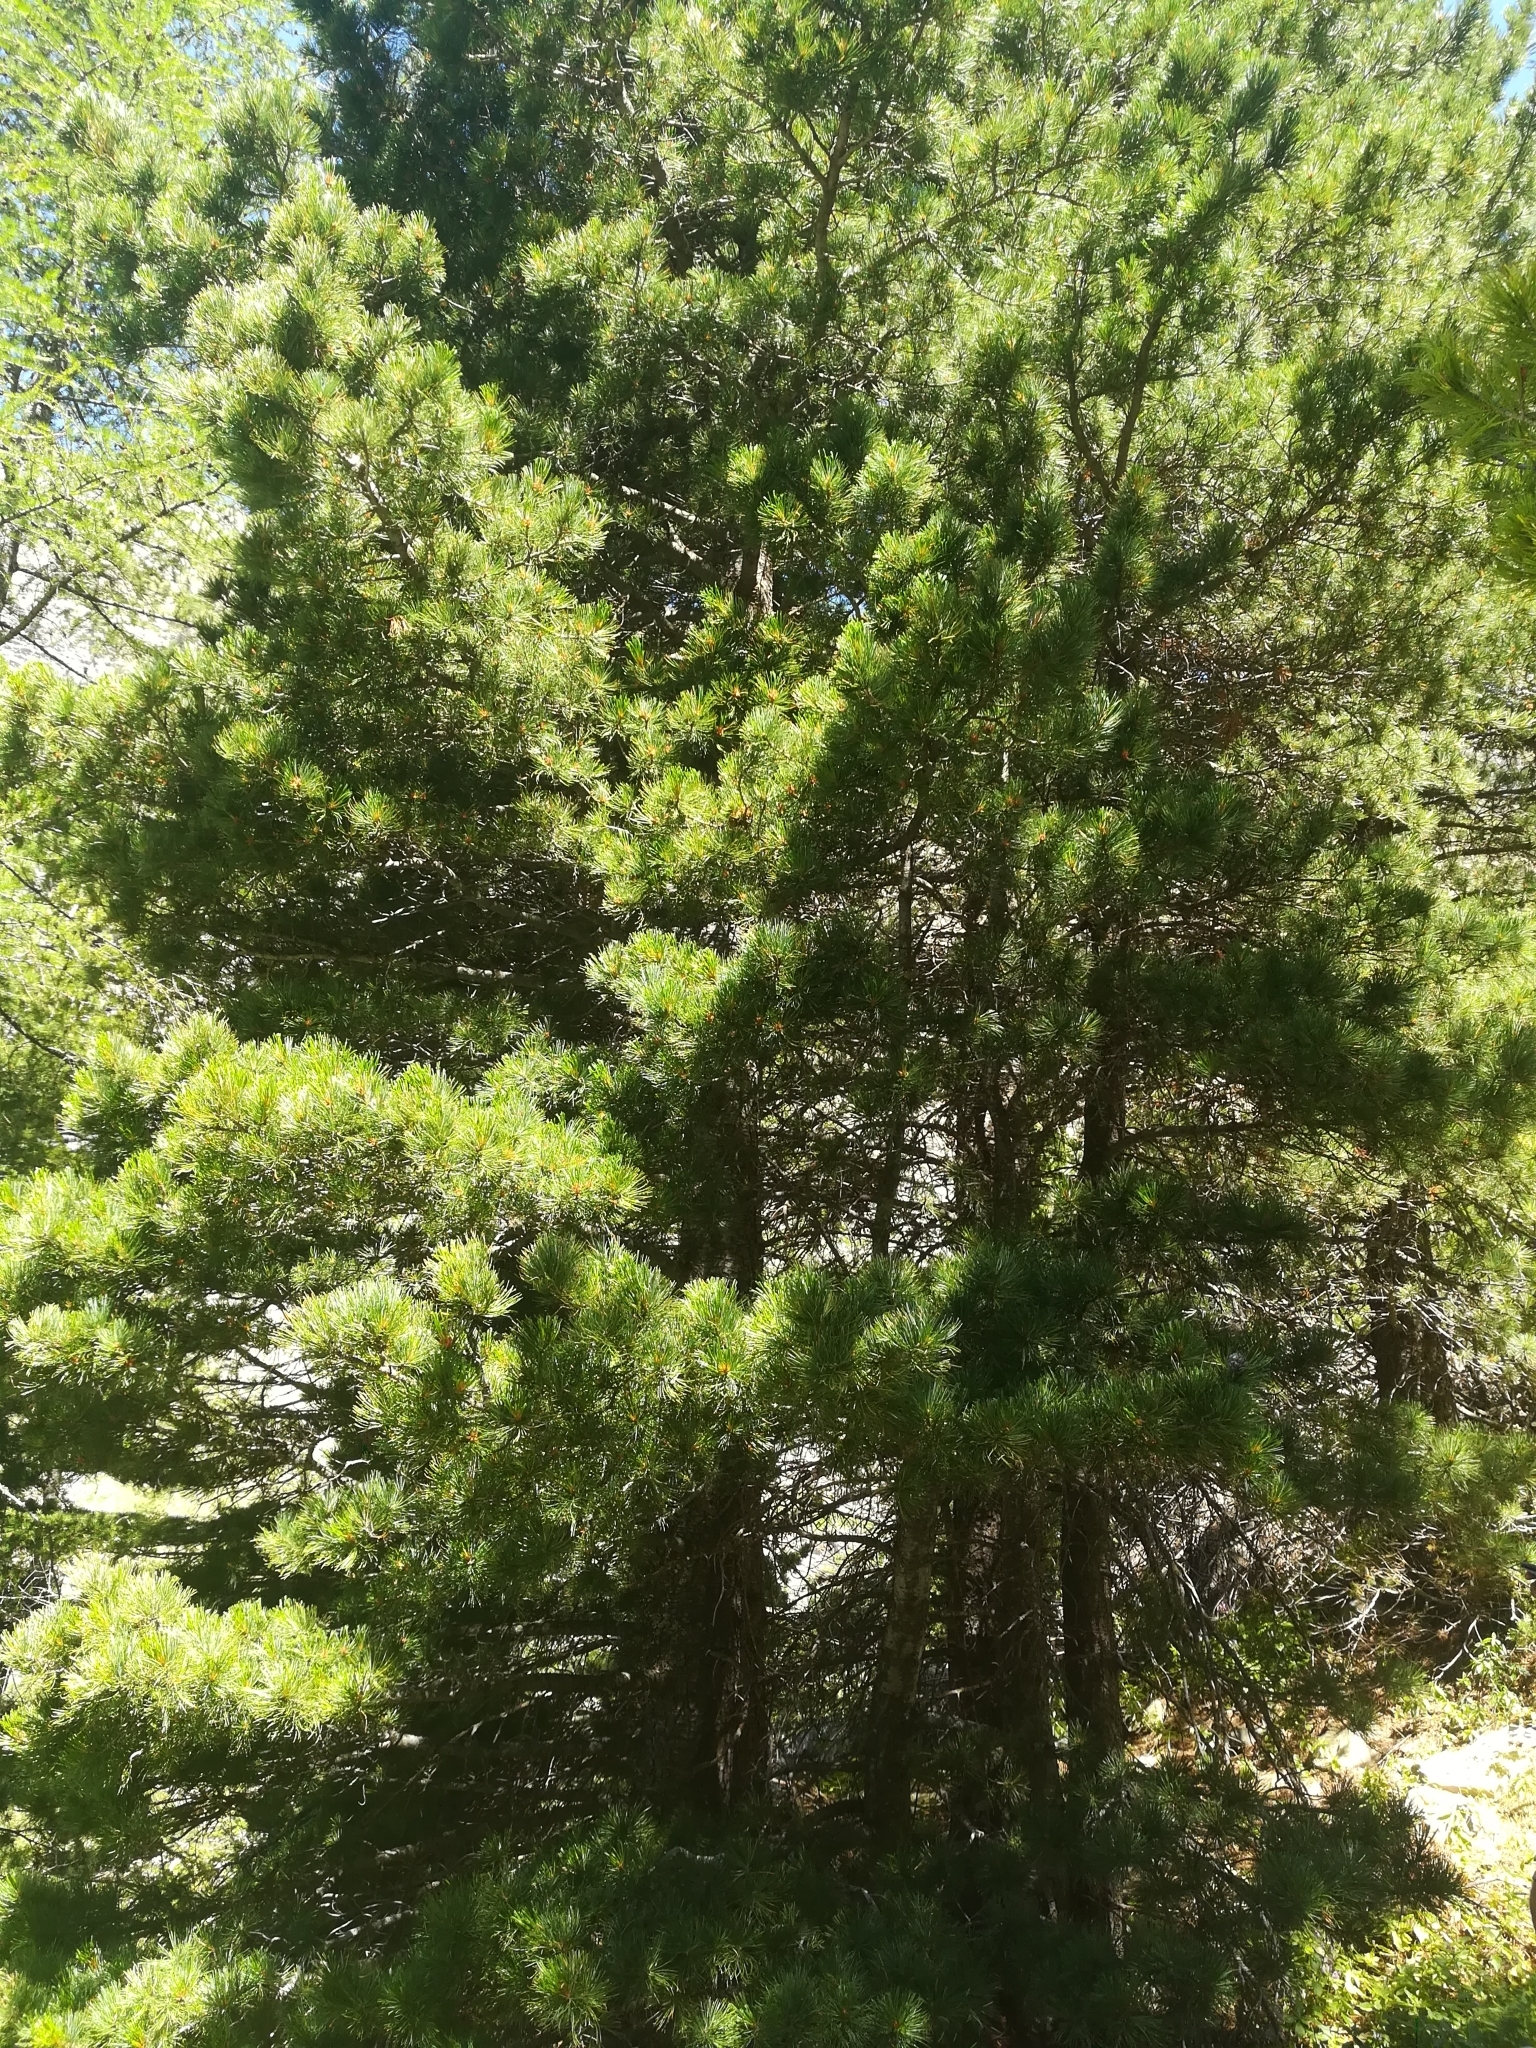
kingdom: Plantae
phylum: Tracheophyta
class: Pinopsida
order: Pinales
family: Pinaceae
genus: Pinus
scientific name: Pinus cembra
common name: Arolla pine
